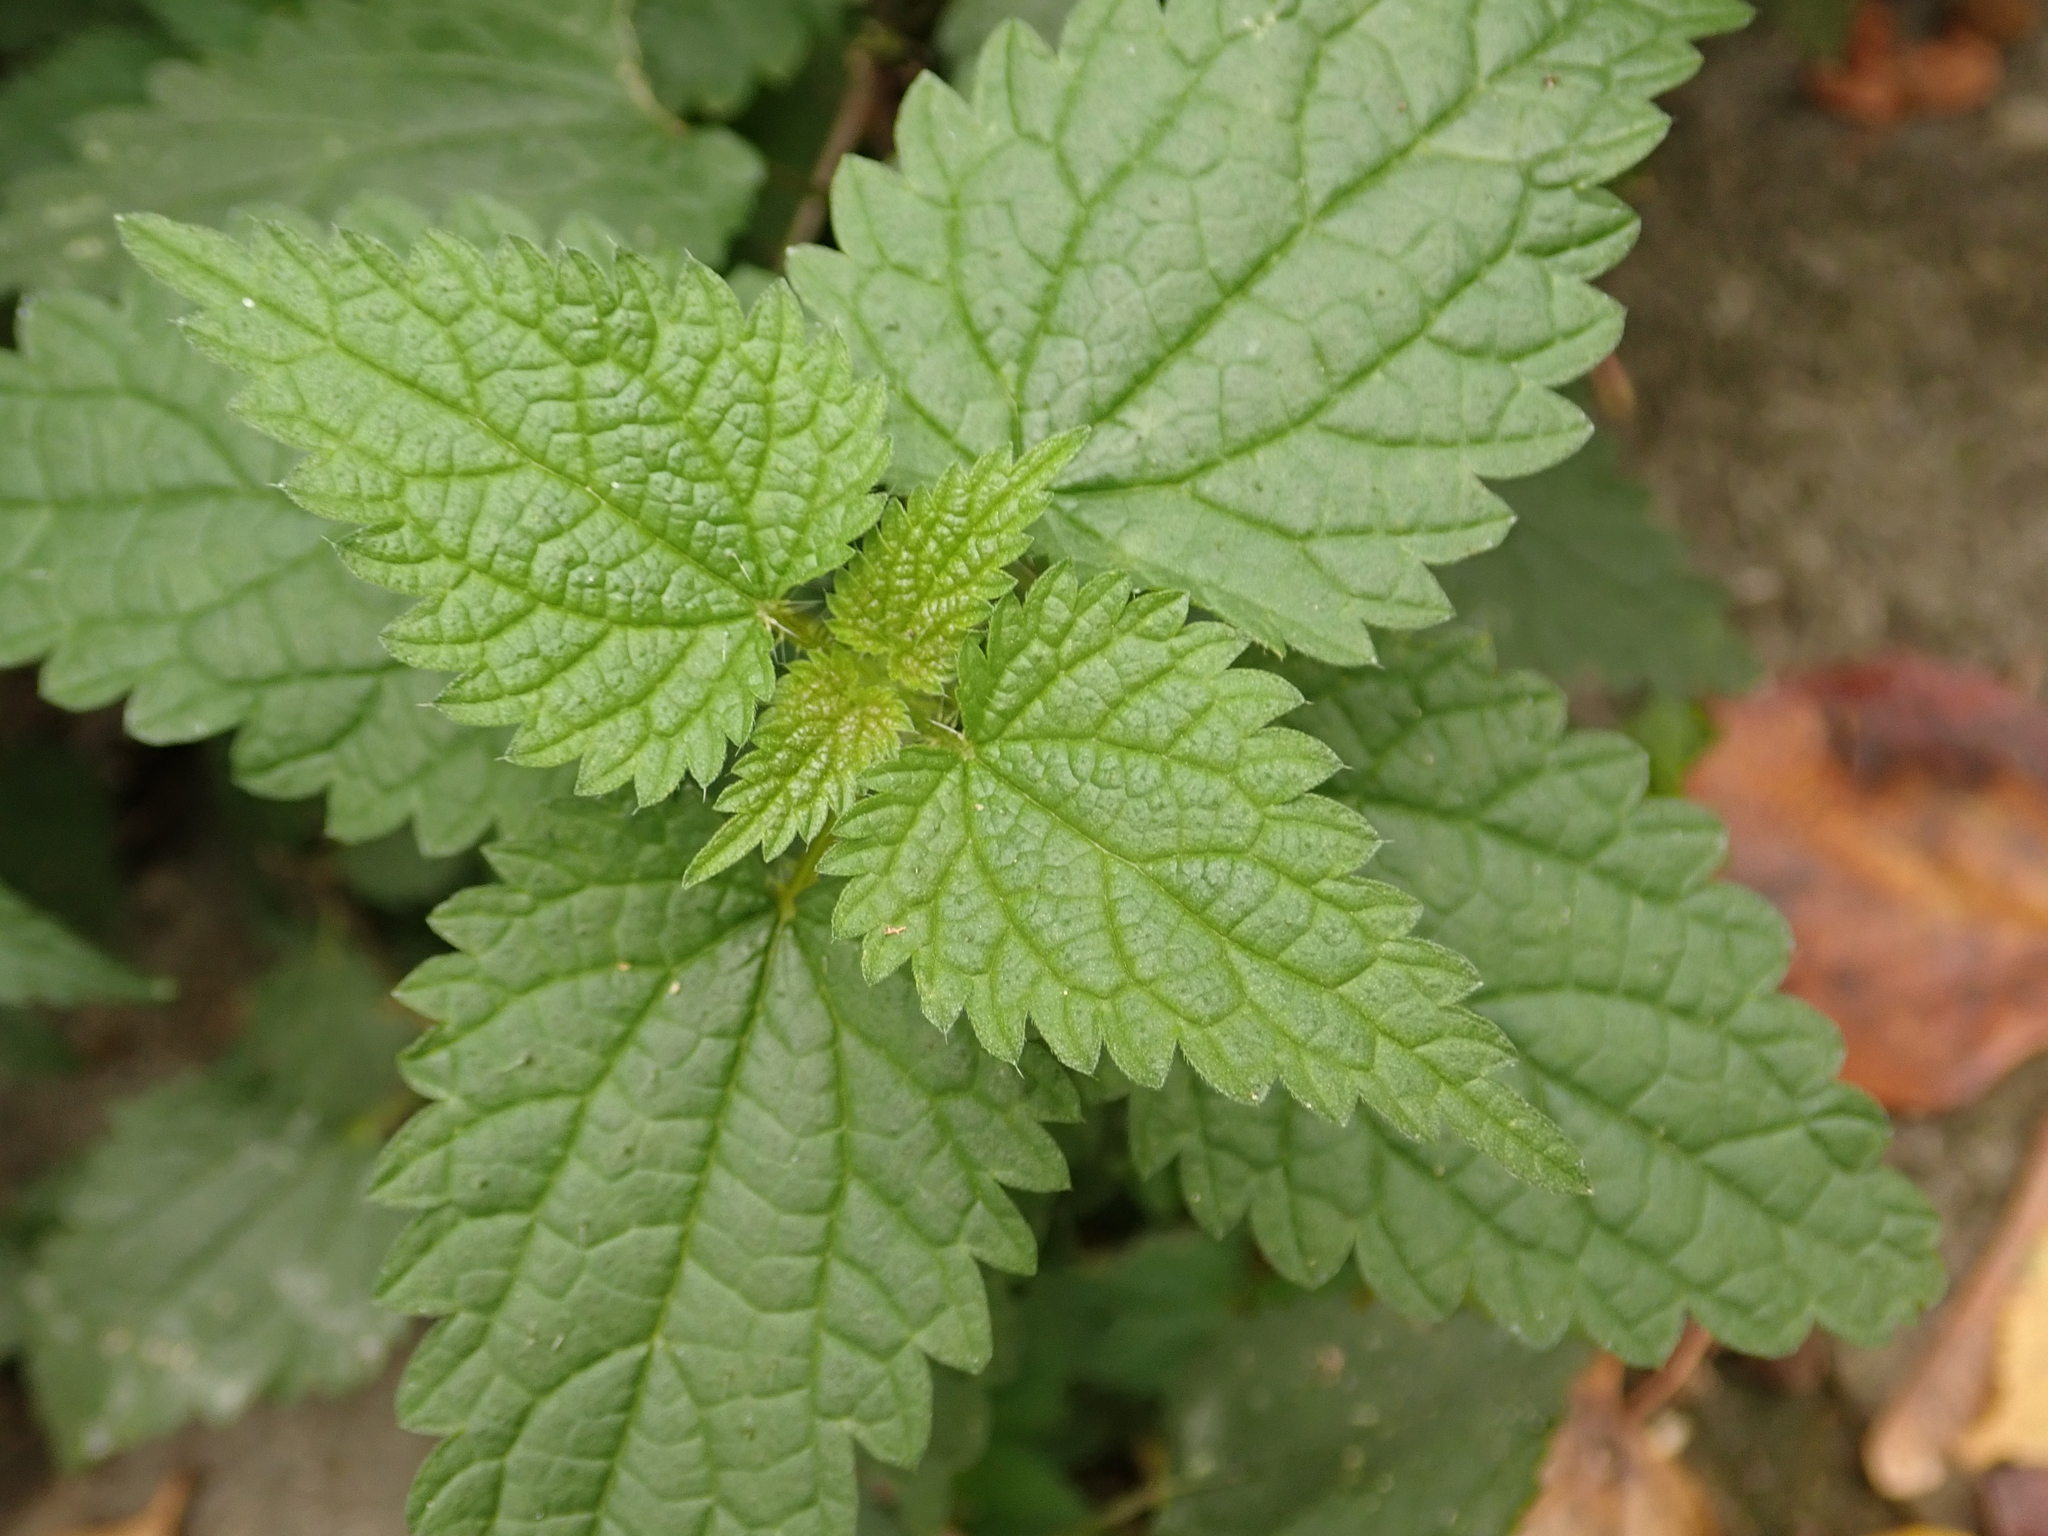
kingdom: Plantae
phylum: Tracheophyta
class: Magnoliopsida
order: Rosales
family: Urticaceae
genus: Urtica
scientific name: Urtica dioica
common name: Common nettle
